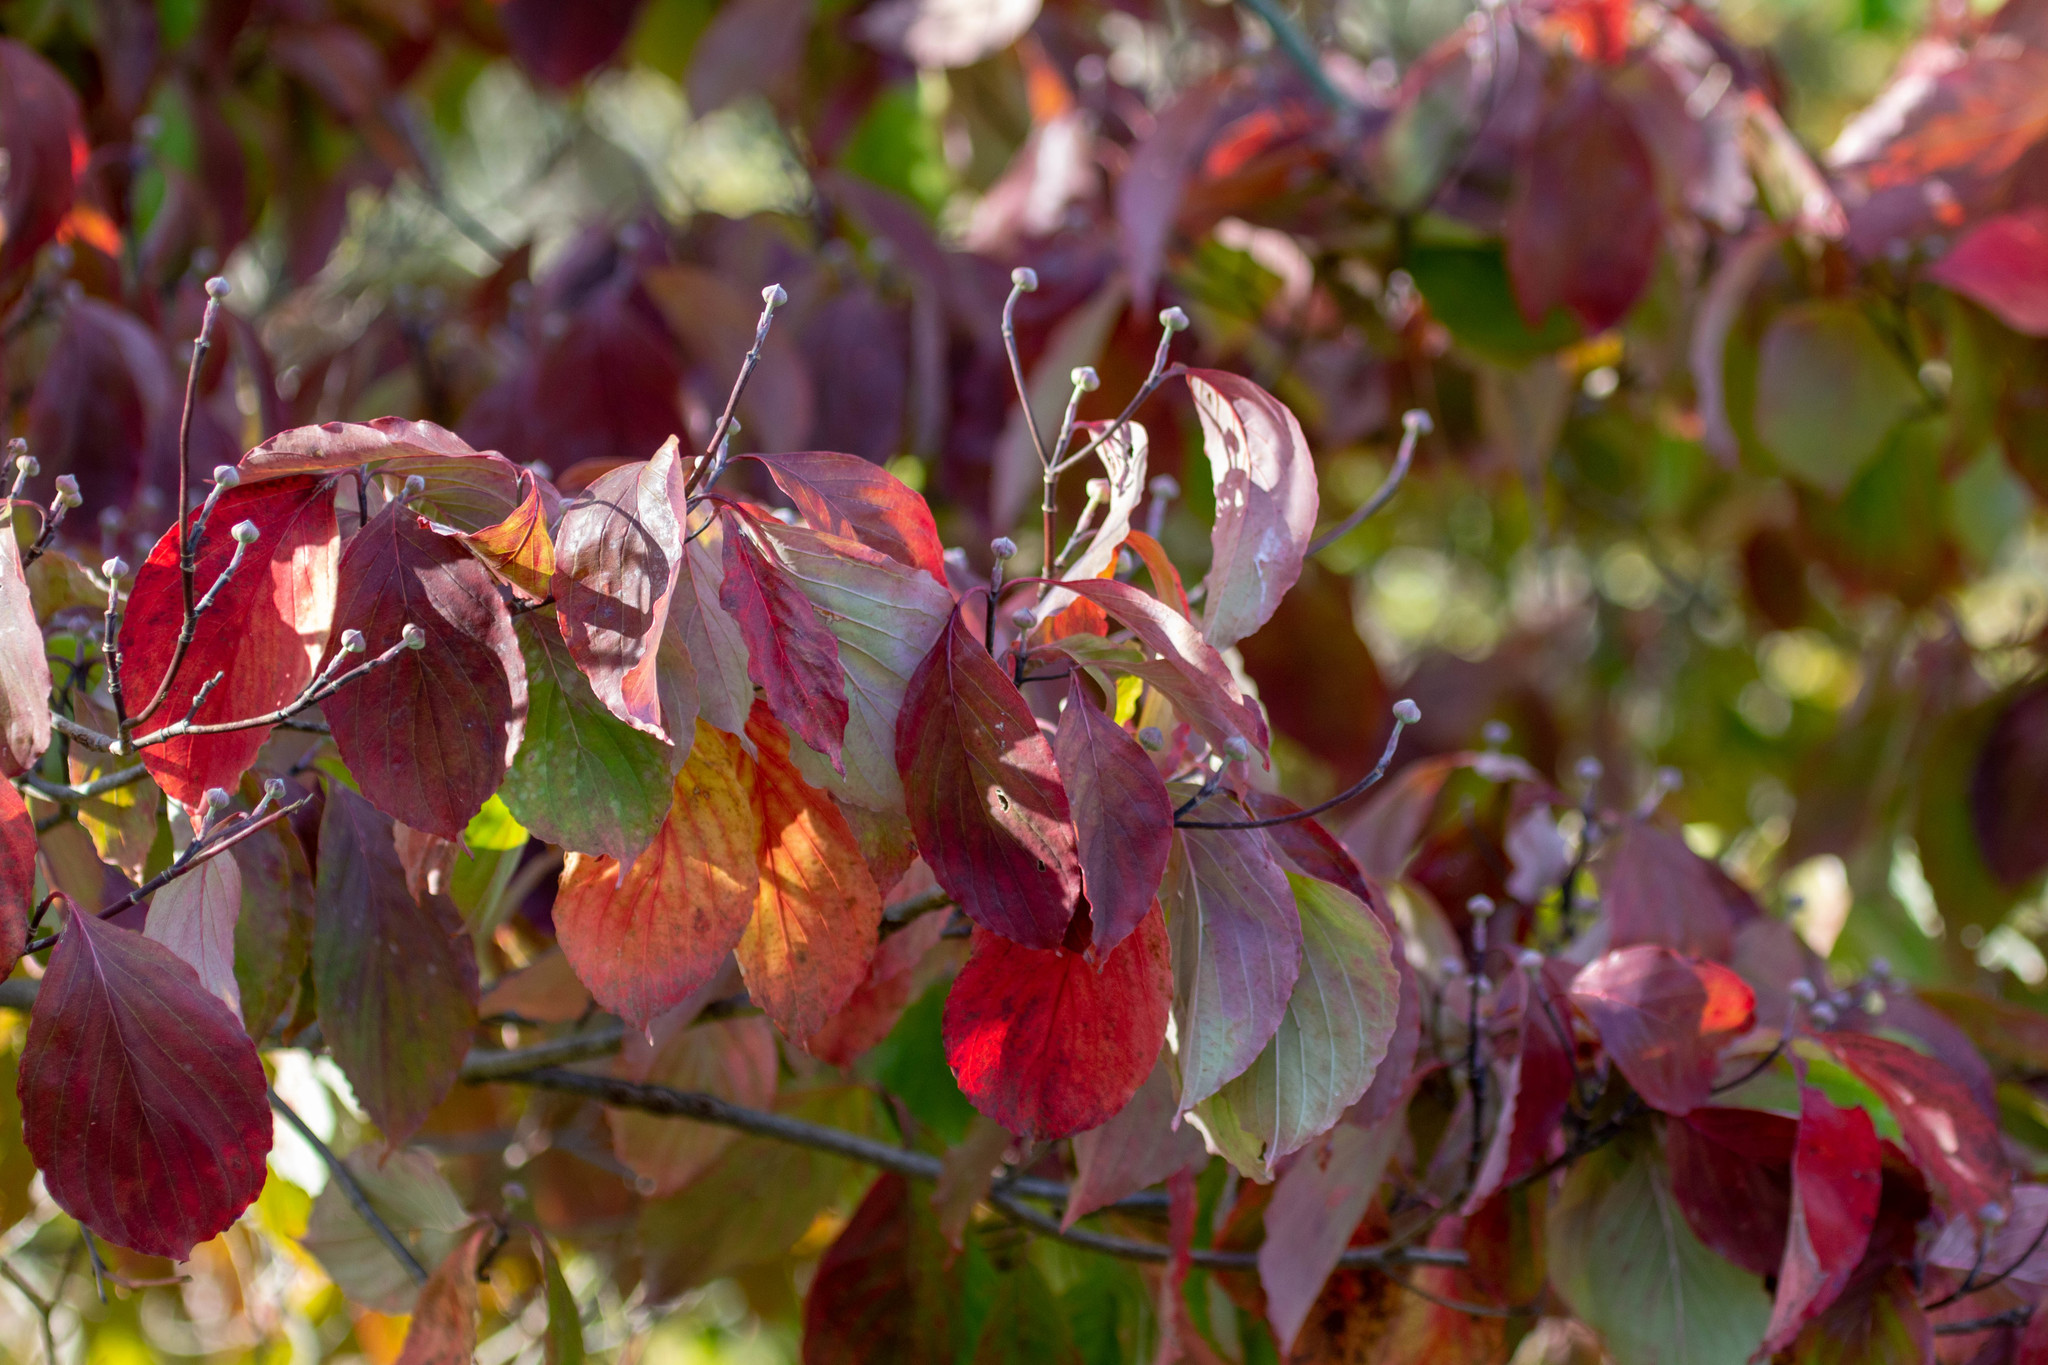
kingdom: Plantae
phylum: Tracheophyta
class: Magnoliopsida
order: Cornales
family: Cornaceae
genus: Cornus
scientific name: Cornus florida
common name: Flowering dogwood
